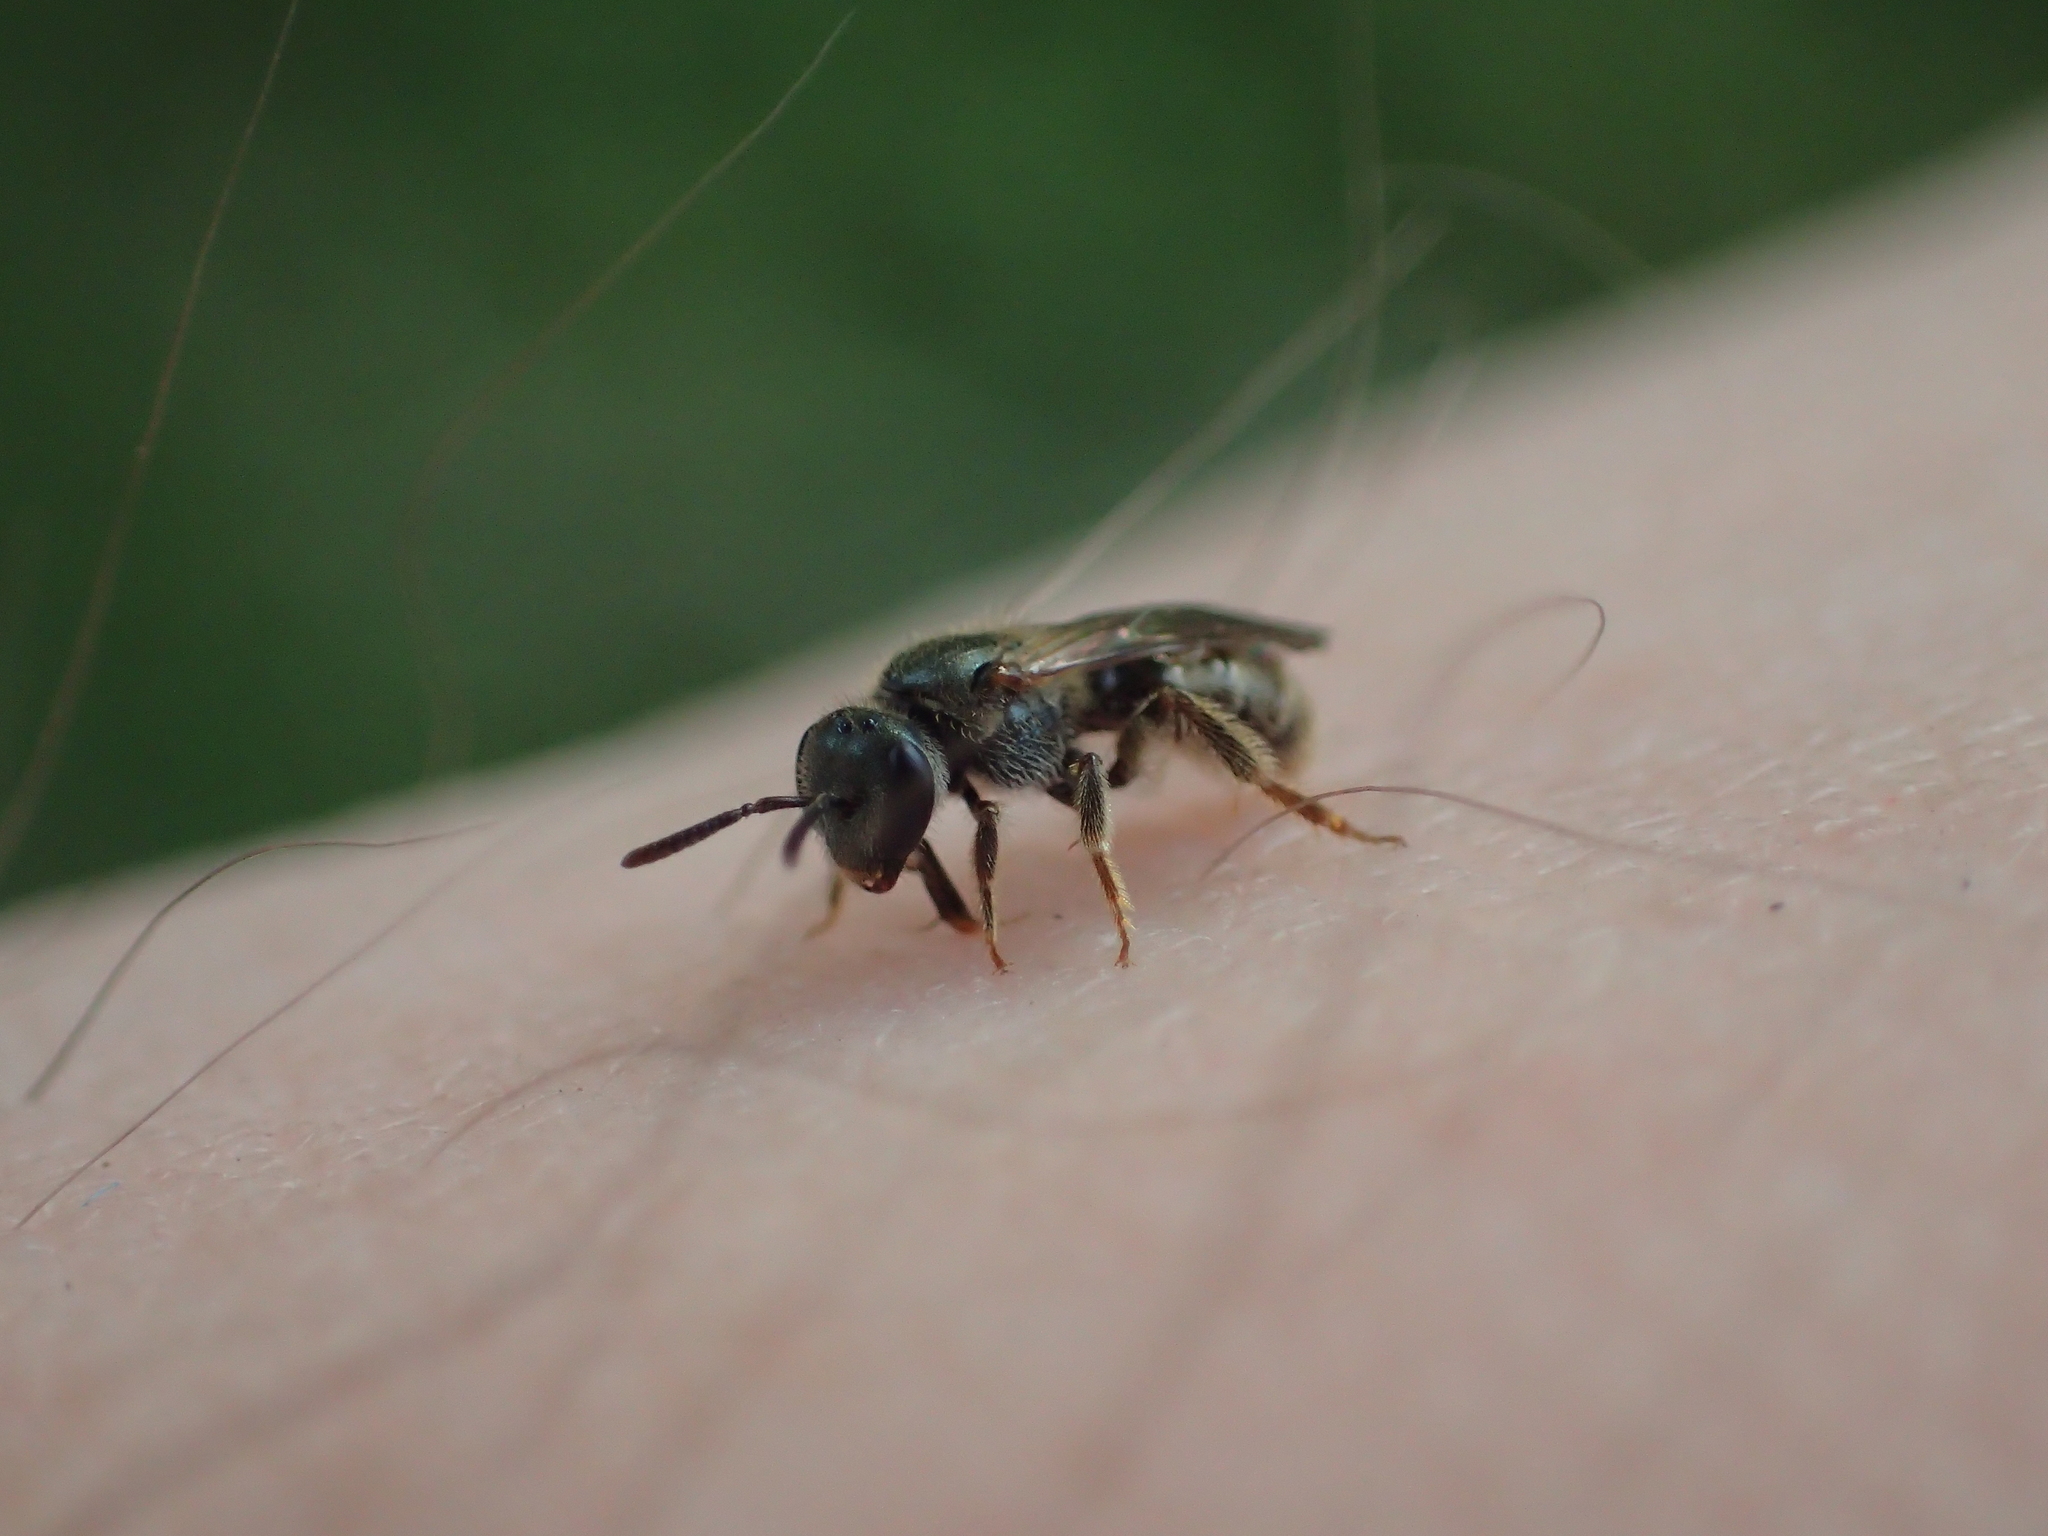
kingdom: Animalia
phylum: Arthropoda
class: Insecta
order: Hymenoptera
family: Halictidae
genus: Dialictus
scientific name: Dialictus
